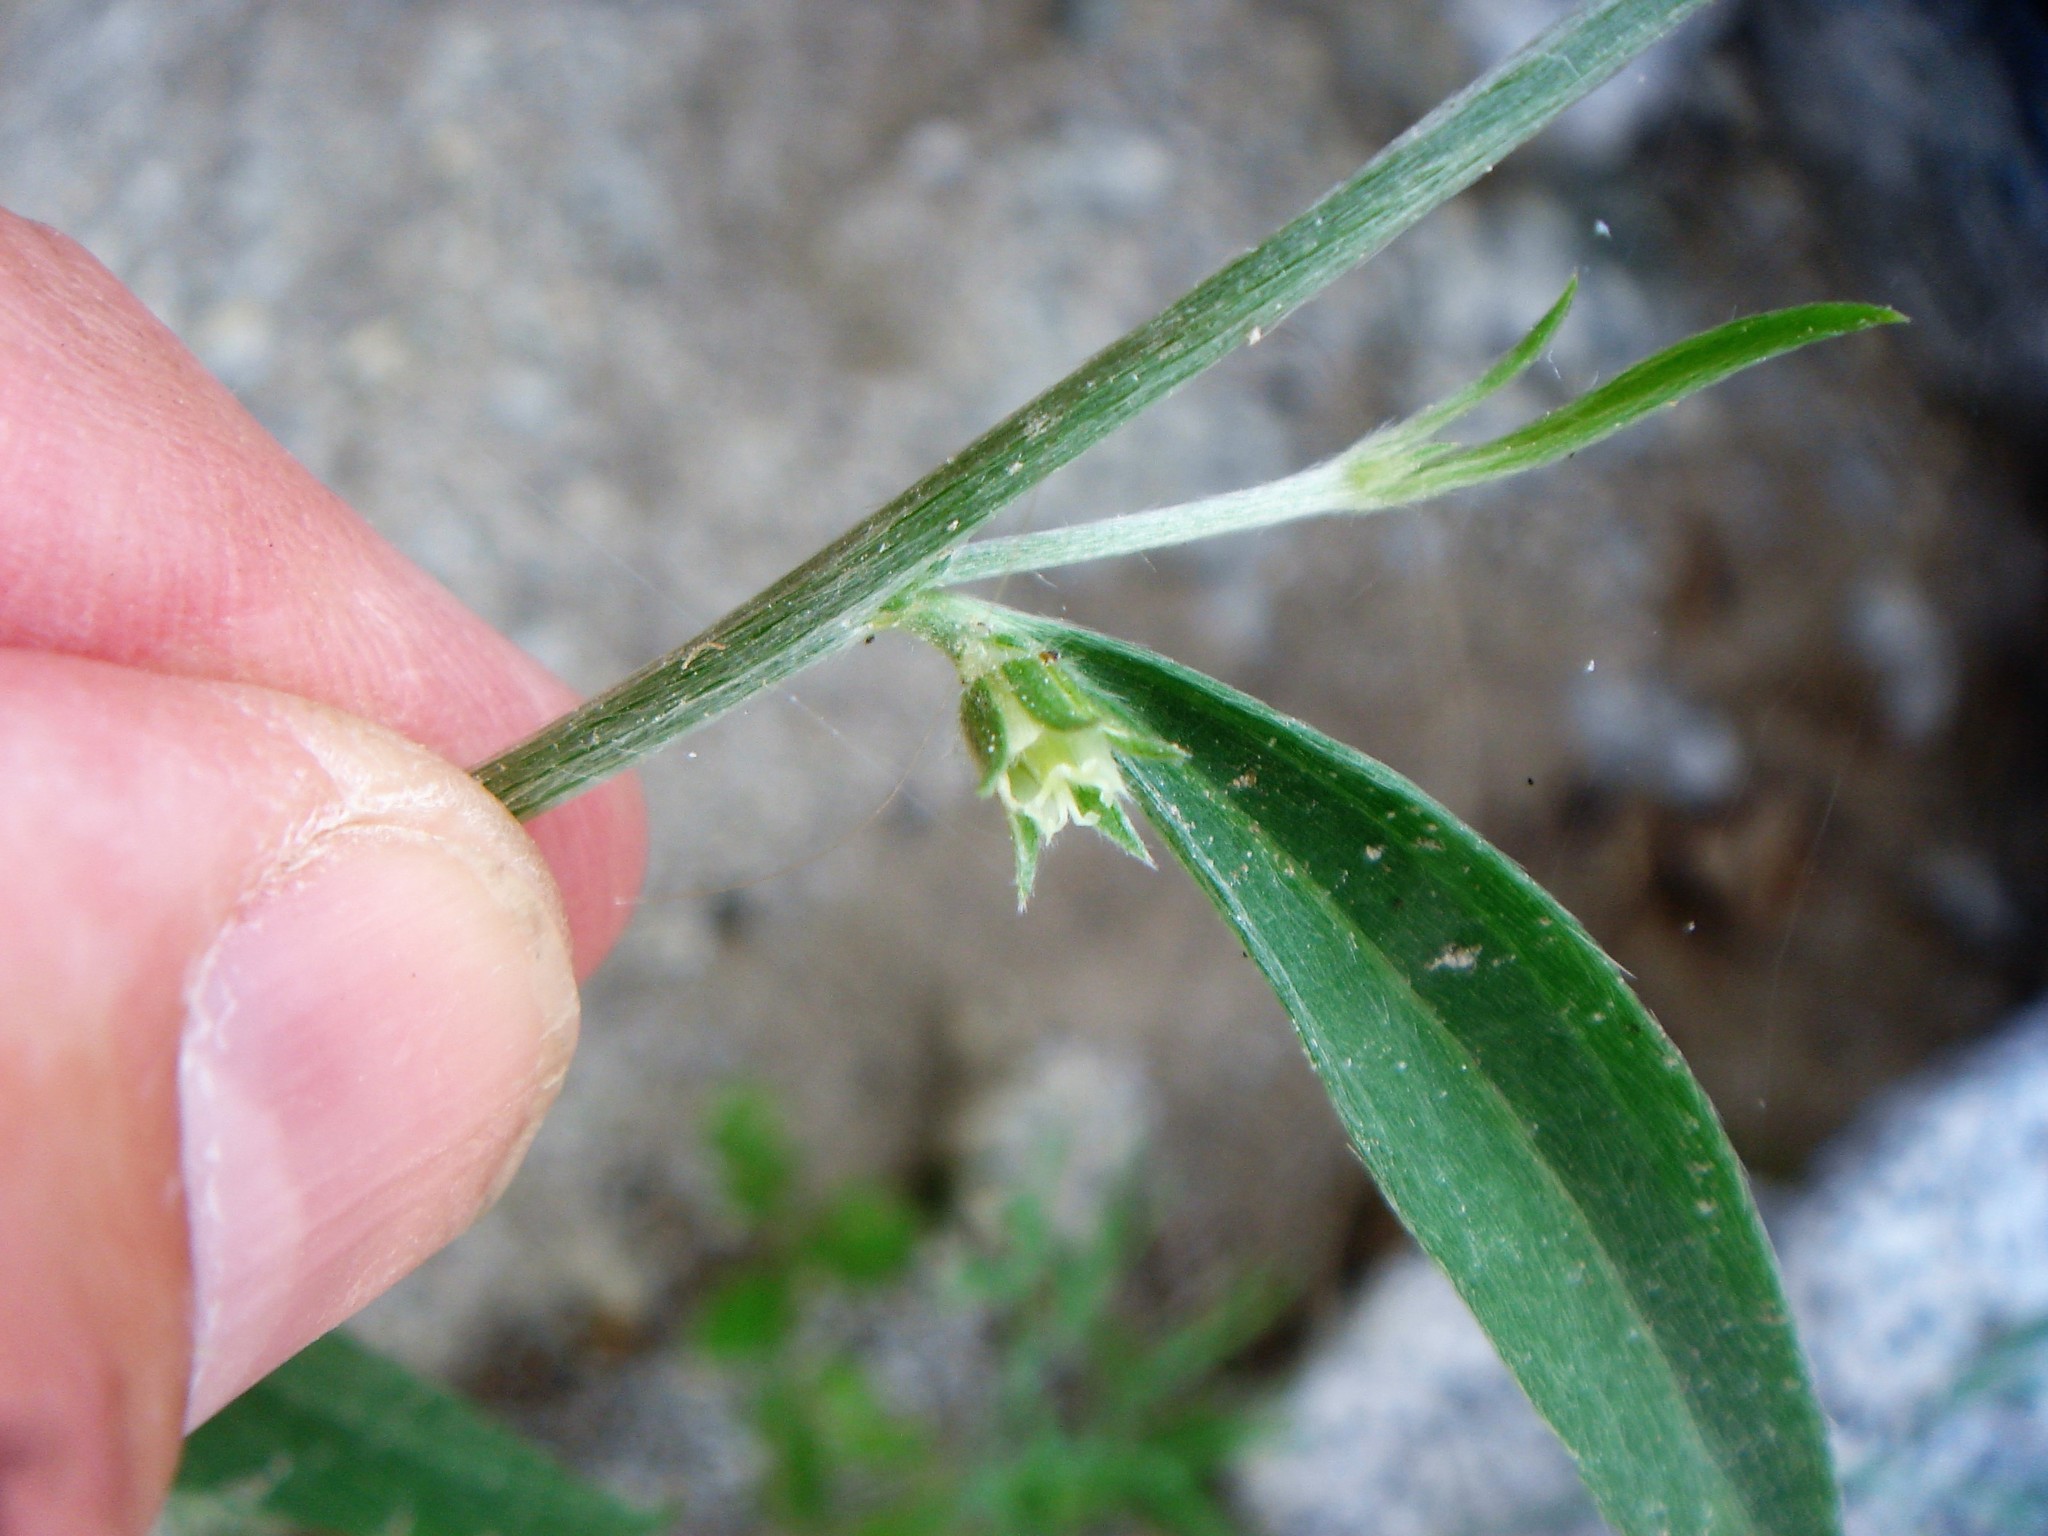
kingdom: Plantae
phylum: Tracheophyta
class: Magnoliopsida
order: Malpighiales
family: Euphorbiaceae
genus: Ditaxis
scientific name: Ditaxis lanceolata
